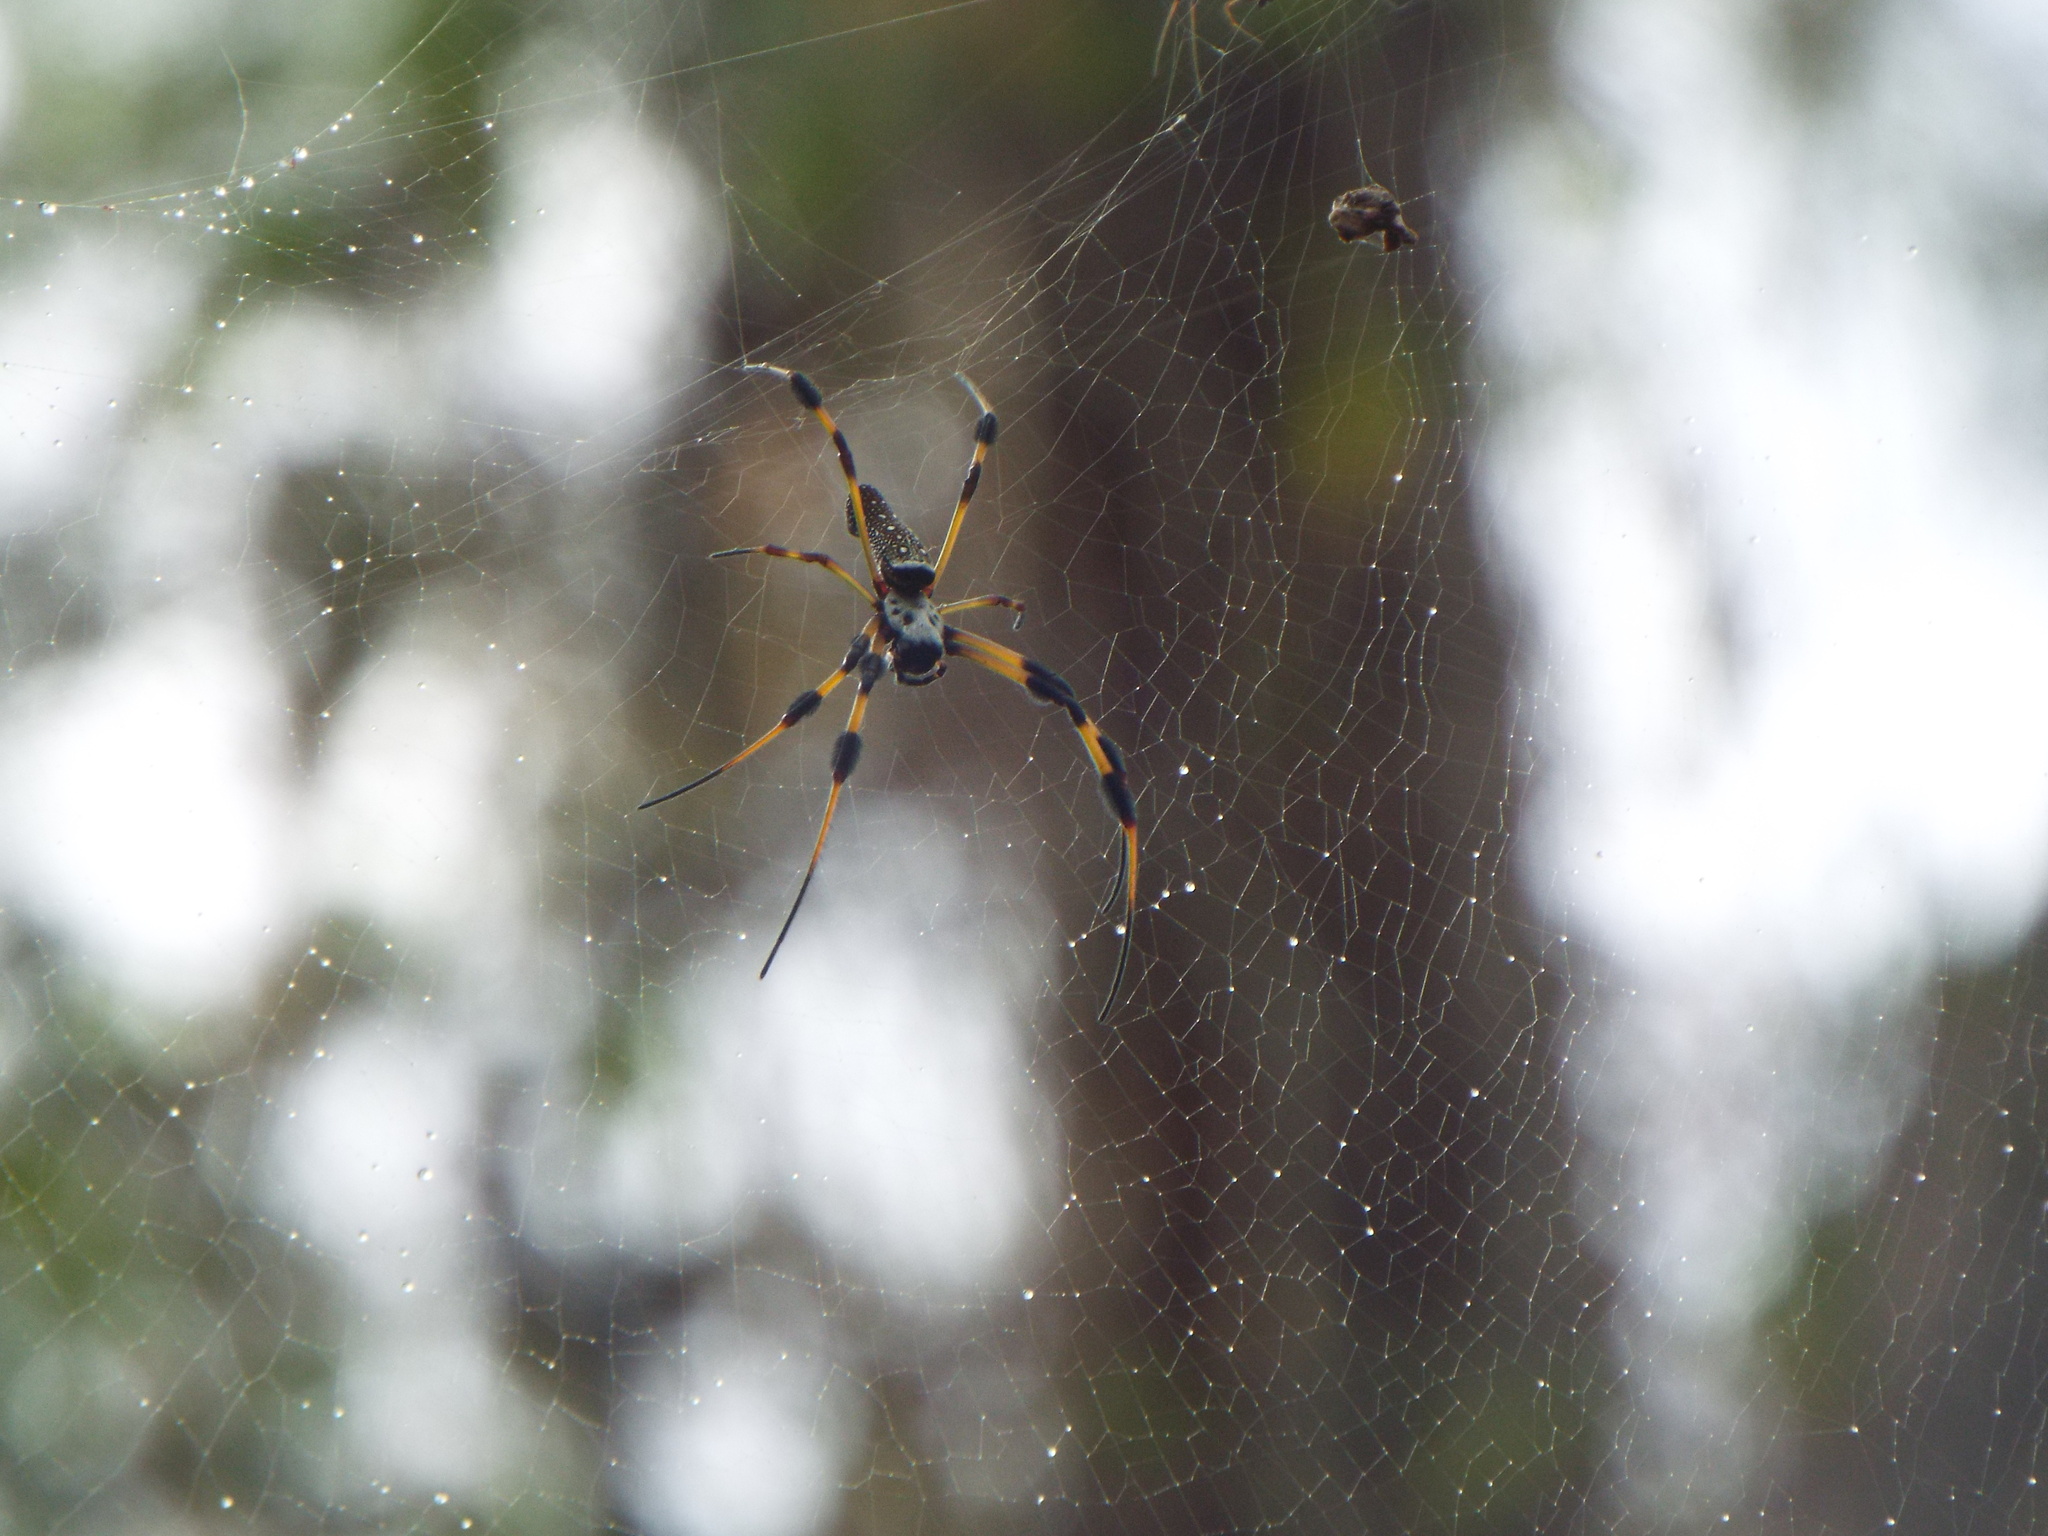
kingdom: Animalia
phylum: Arthropoda
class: Arachnida
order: Araneae
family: Araneidae
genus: Trichonephila
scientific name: Trichonephila clavipes
